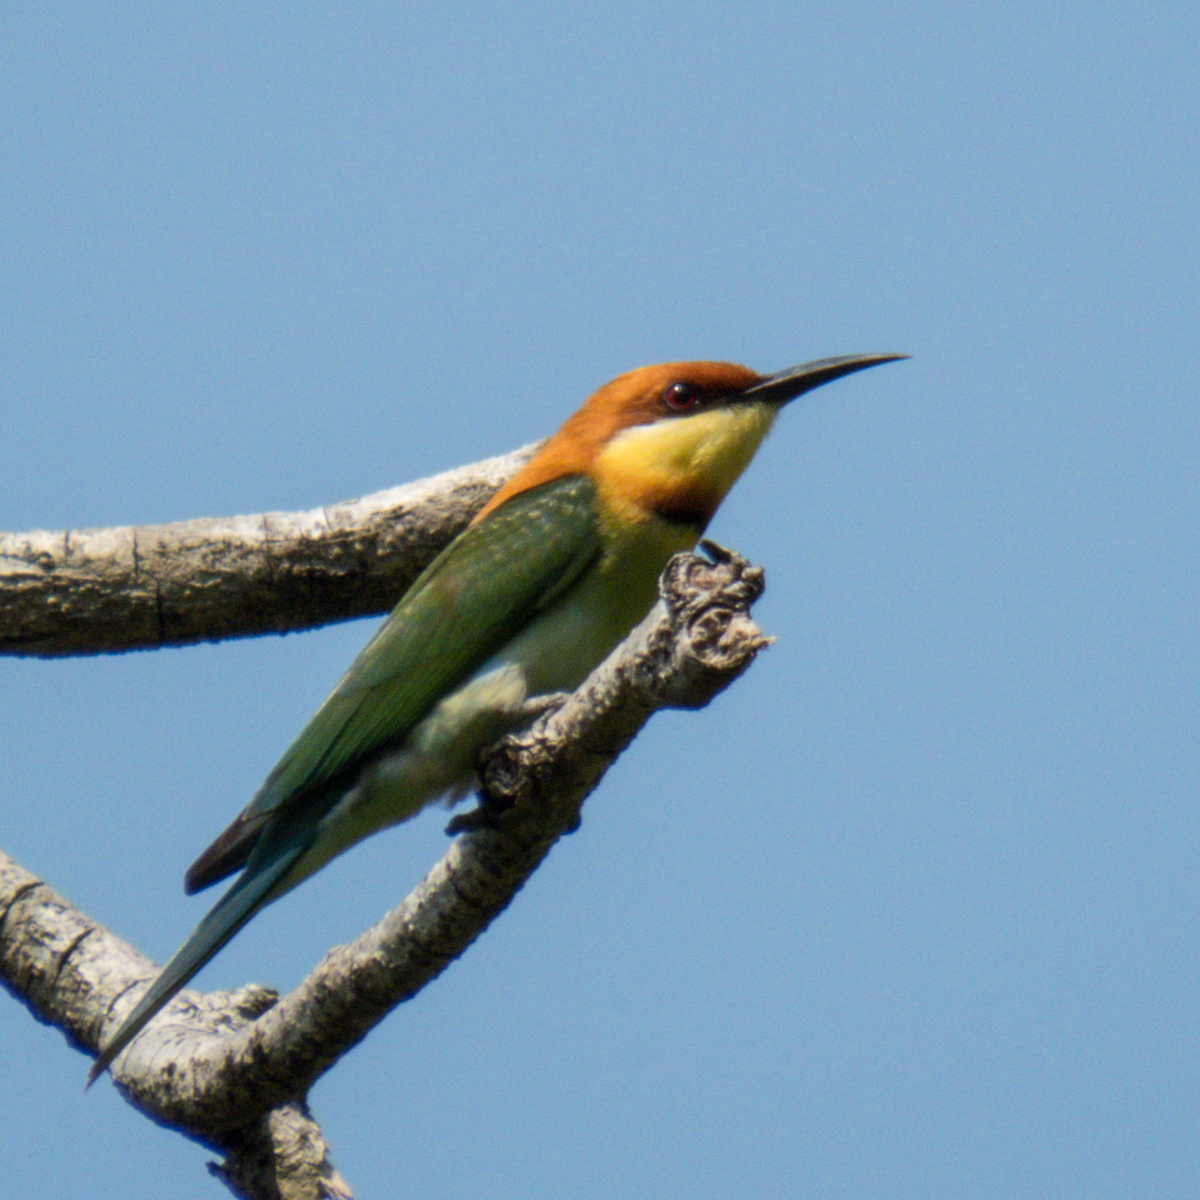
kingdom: Animalia
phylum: Chordata
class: Aves
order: Coraciiformes
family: Meropidae
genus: Merops
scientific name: Merops leschenaulti
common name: Chestnut-headed bee-eater
